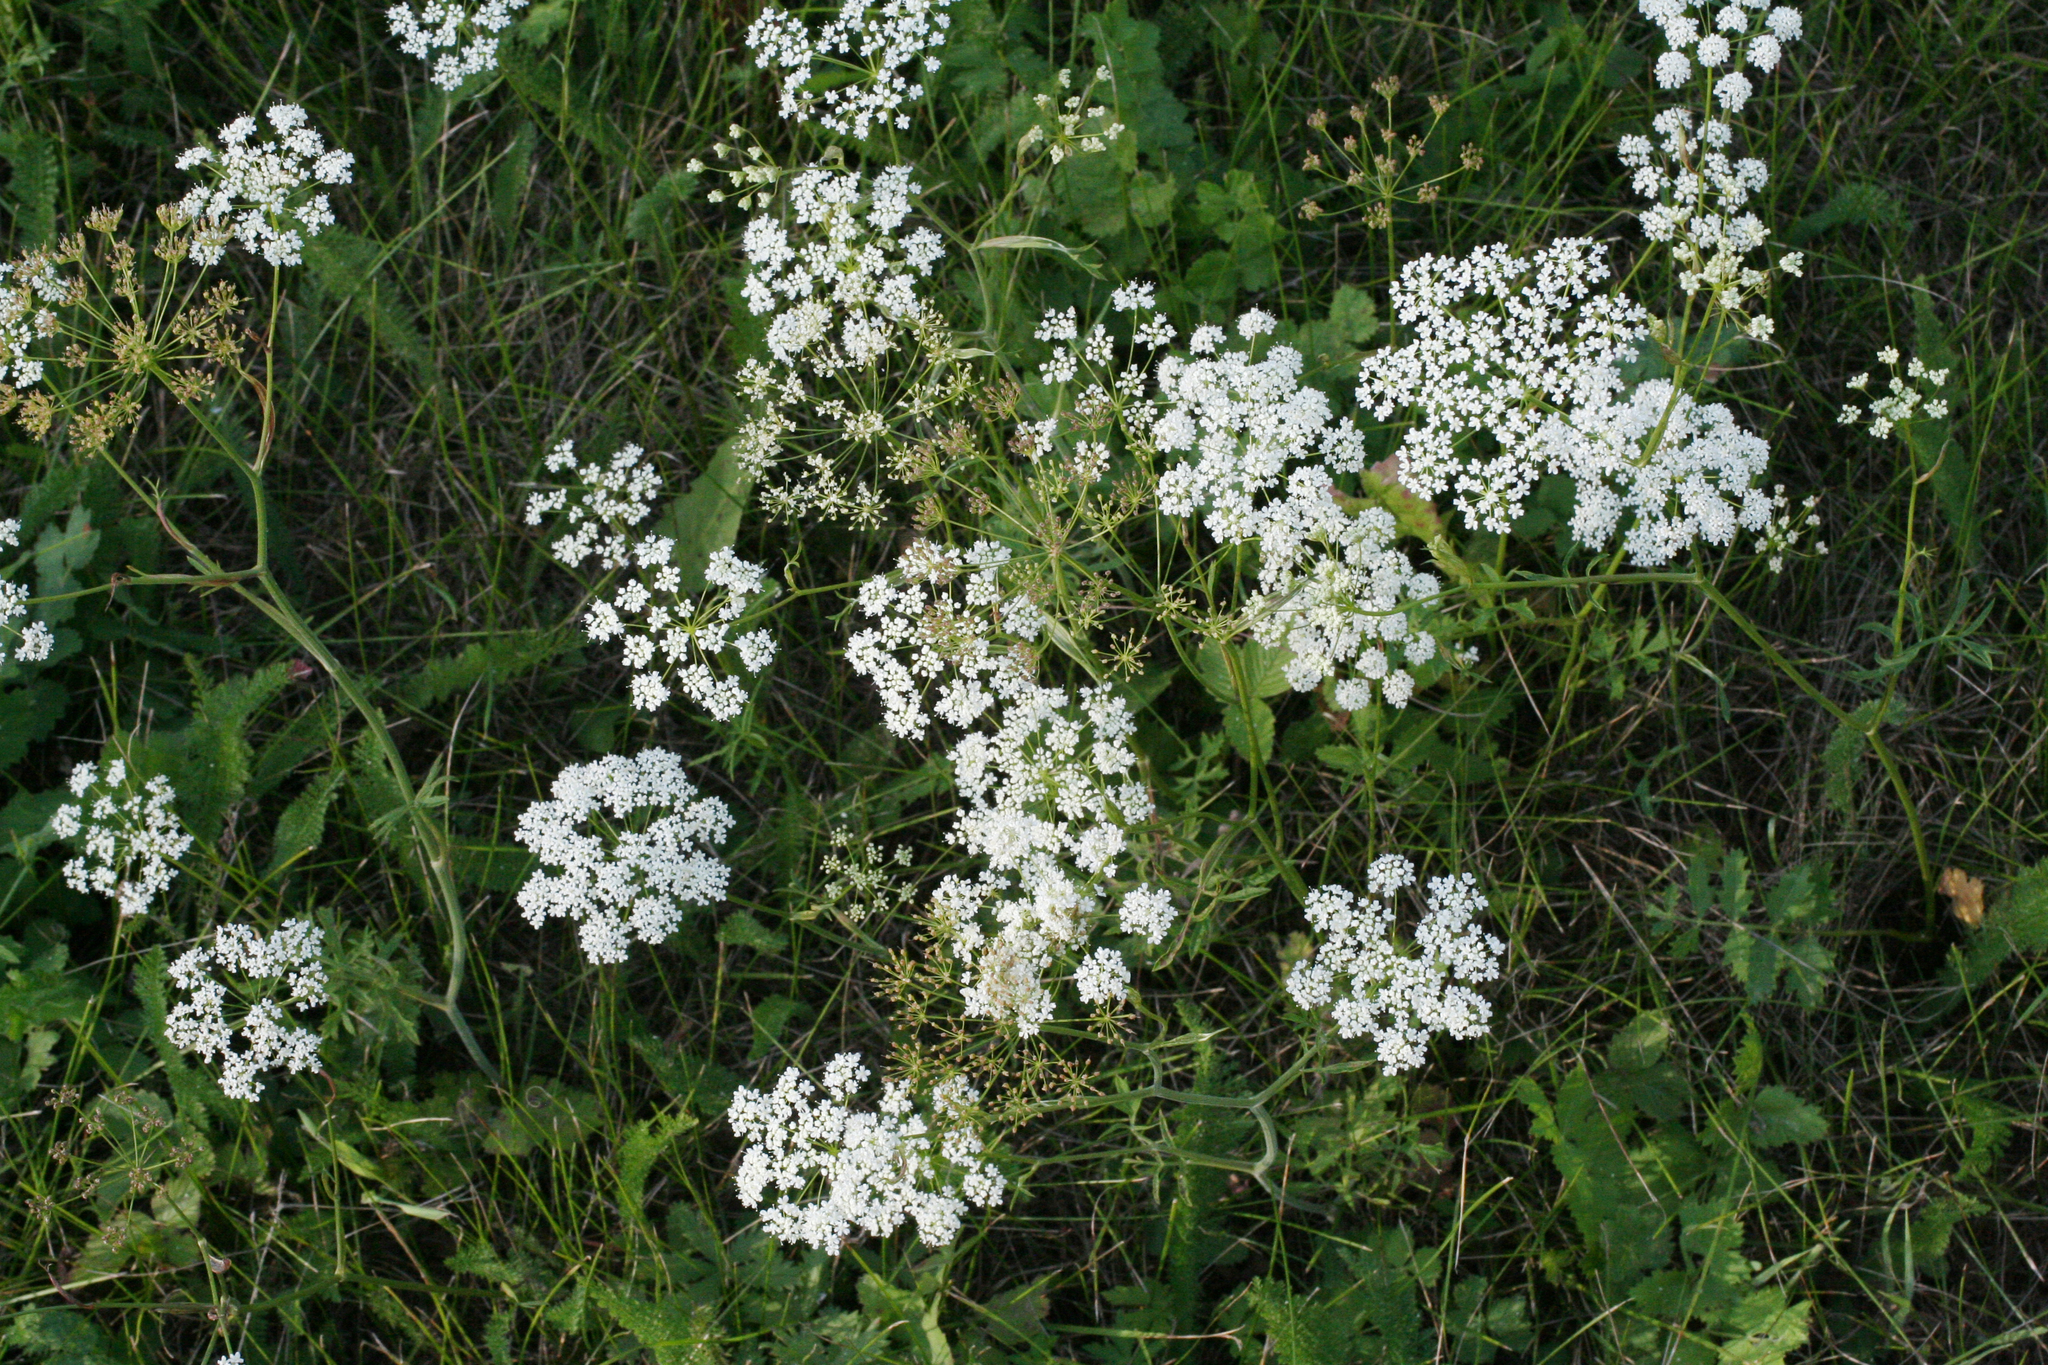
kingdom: Plantae
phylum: Tracheophyta
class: Magnoliopsida
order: Apiales
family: Apiaceae
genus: Pimpinella
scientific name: Pimpinella saxifraga
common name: Burnet-saxifrage
